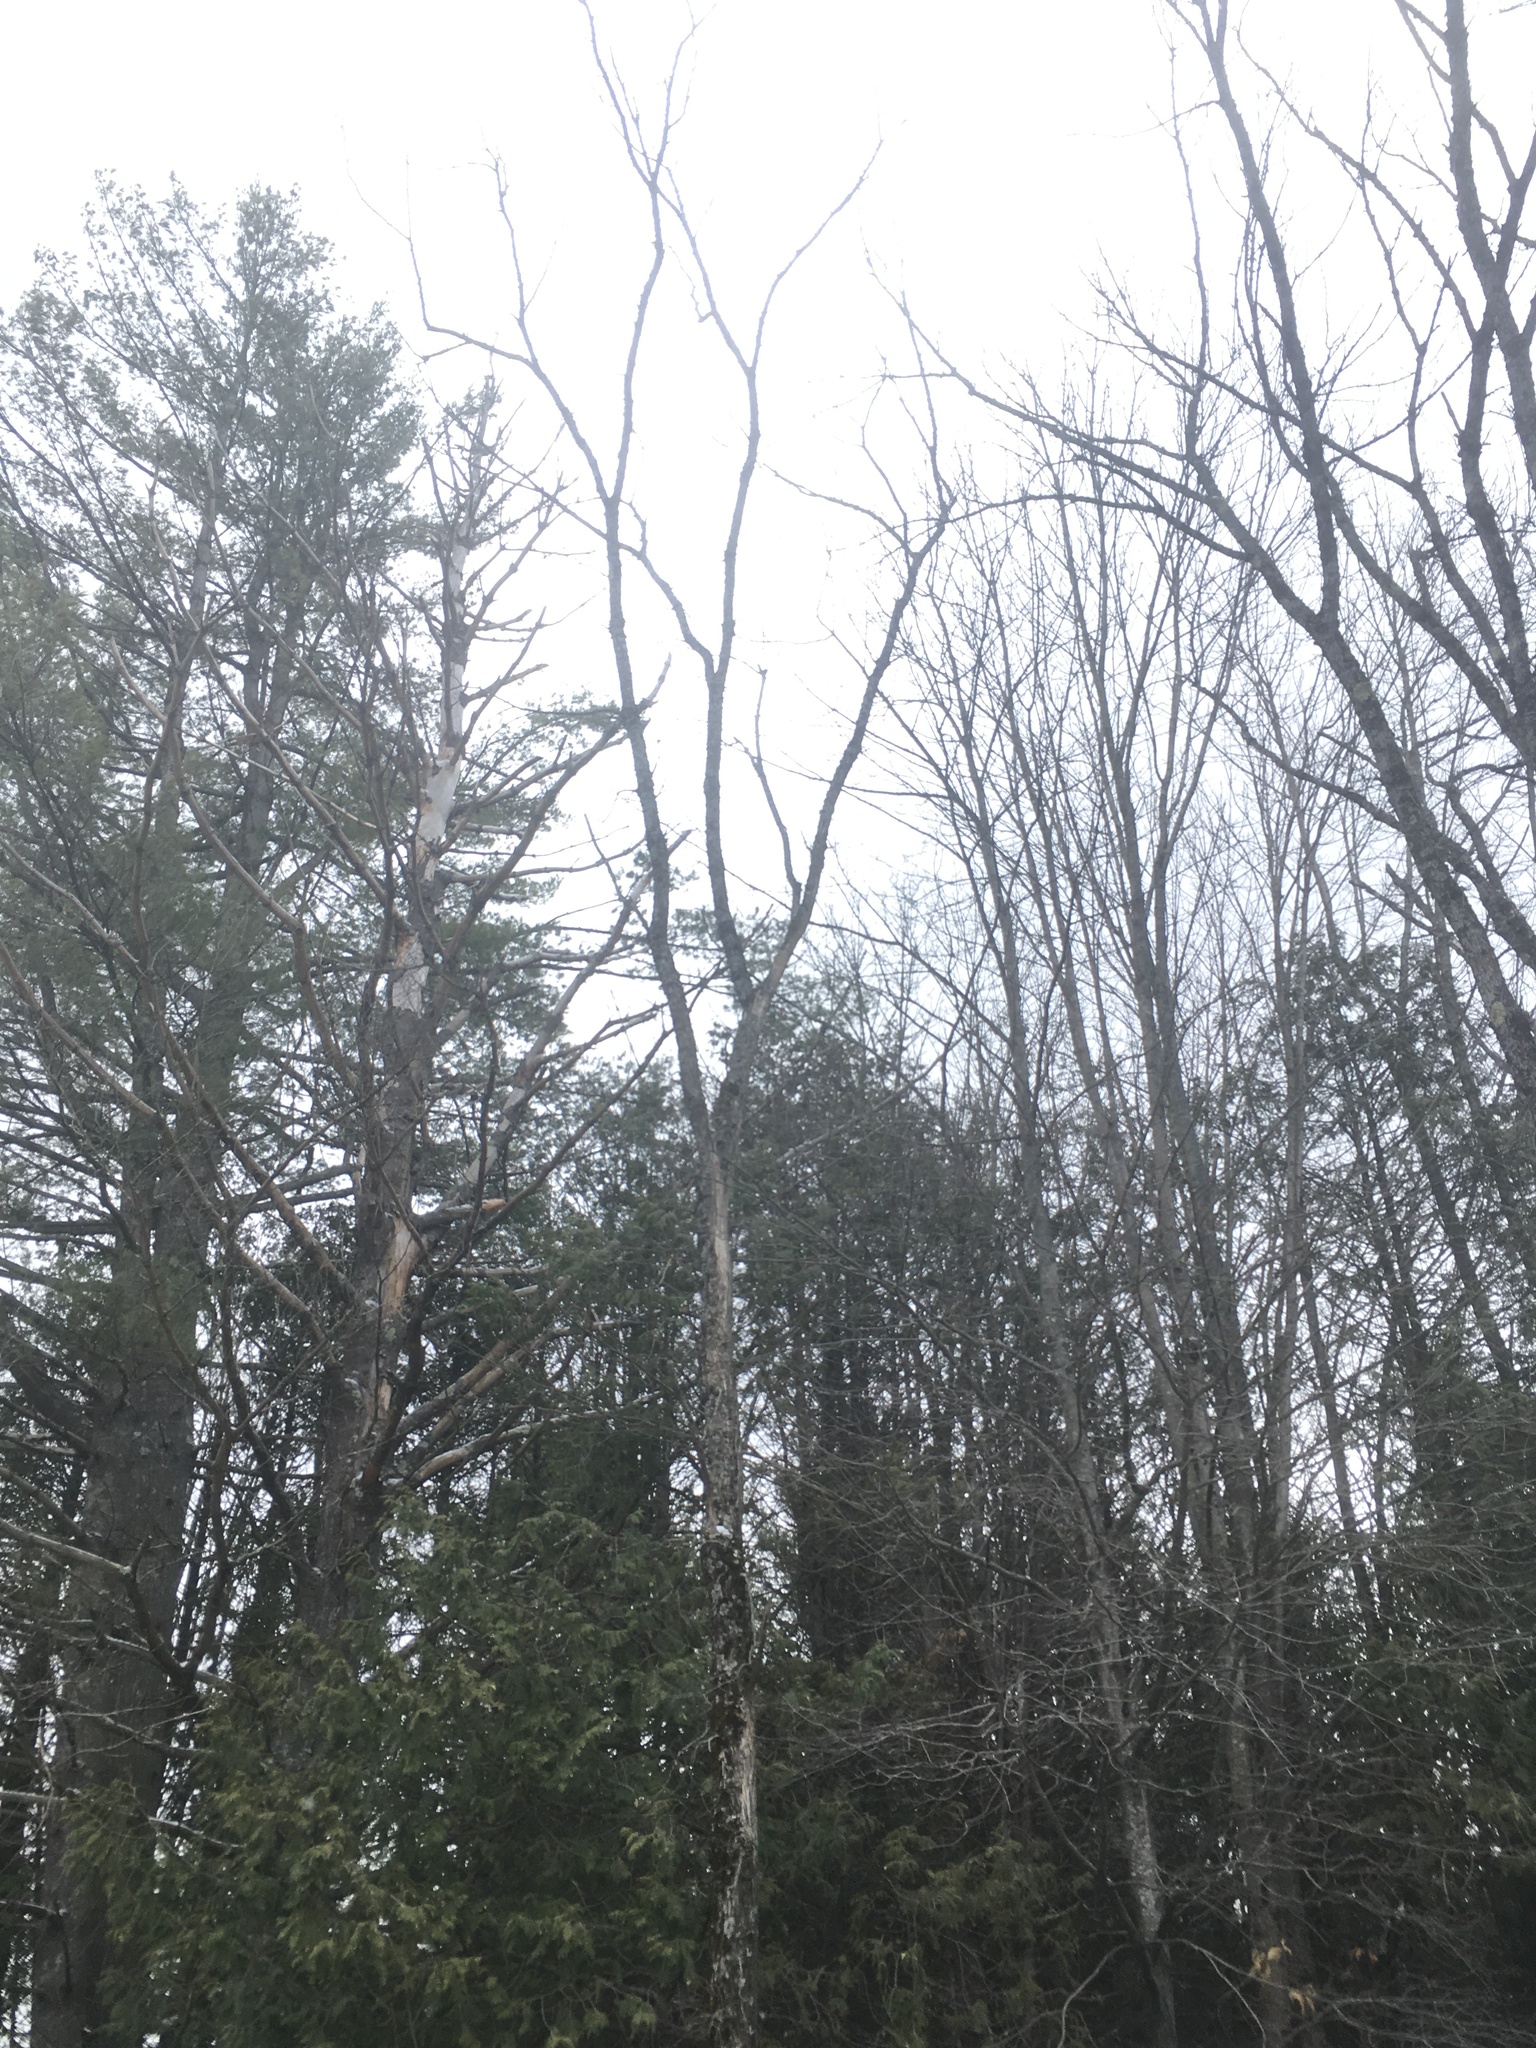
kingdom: Plantae
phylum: Tracheophyta
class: Magnoliopsida
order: Rosales
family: Ulmaceae
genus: Ulmus
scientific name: Ulmus americana
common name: American elm
